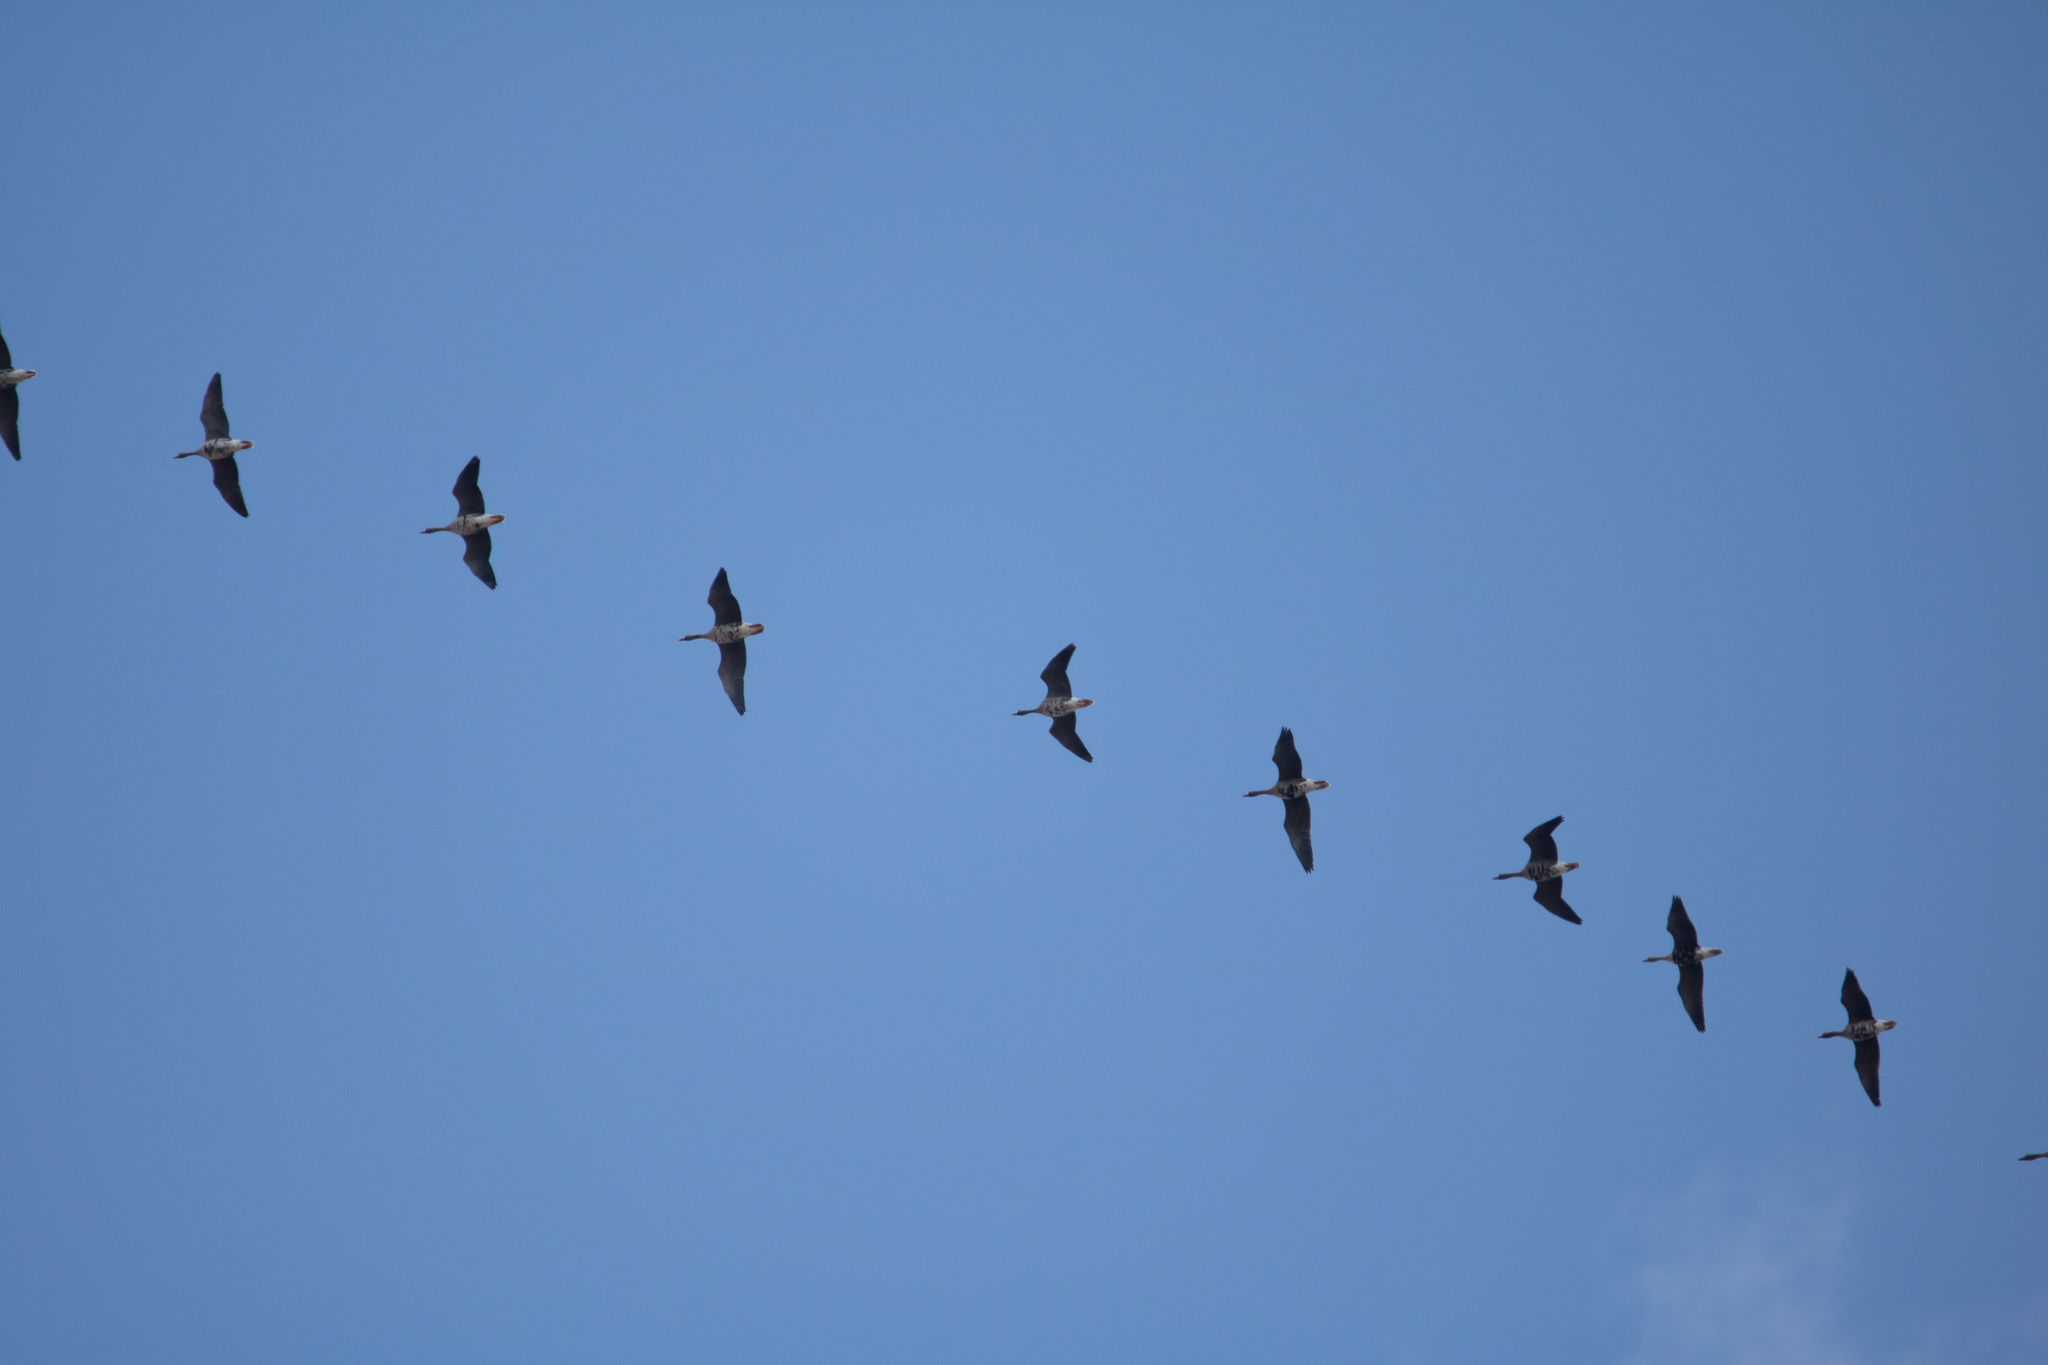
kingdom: Animalia
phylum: Chordata
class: Aves
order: Anseriformes
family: Anatidae
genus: Anser
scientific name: Anser albifrons
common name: Greater white-fronted goose
